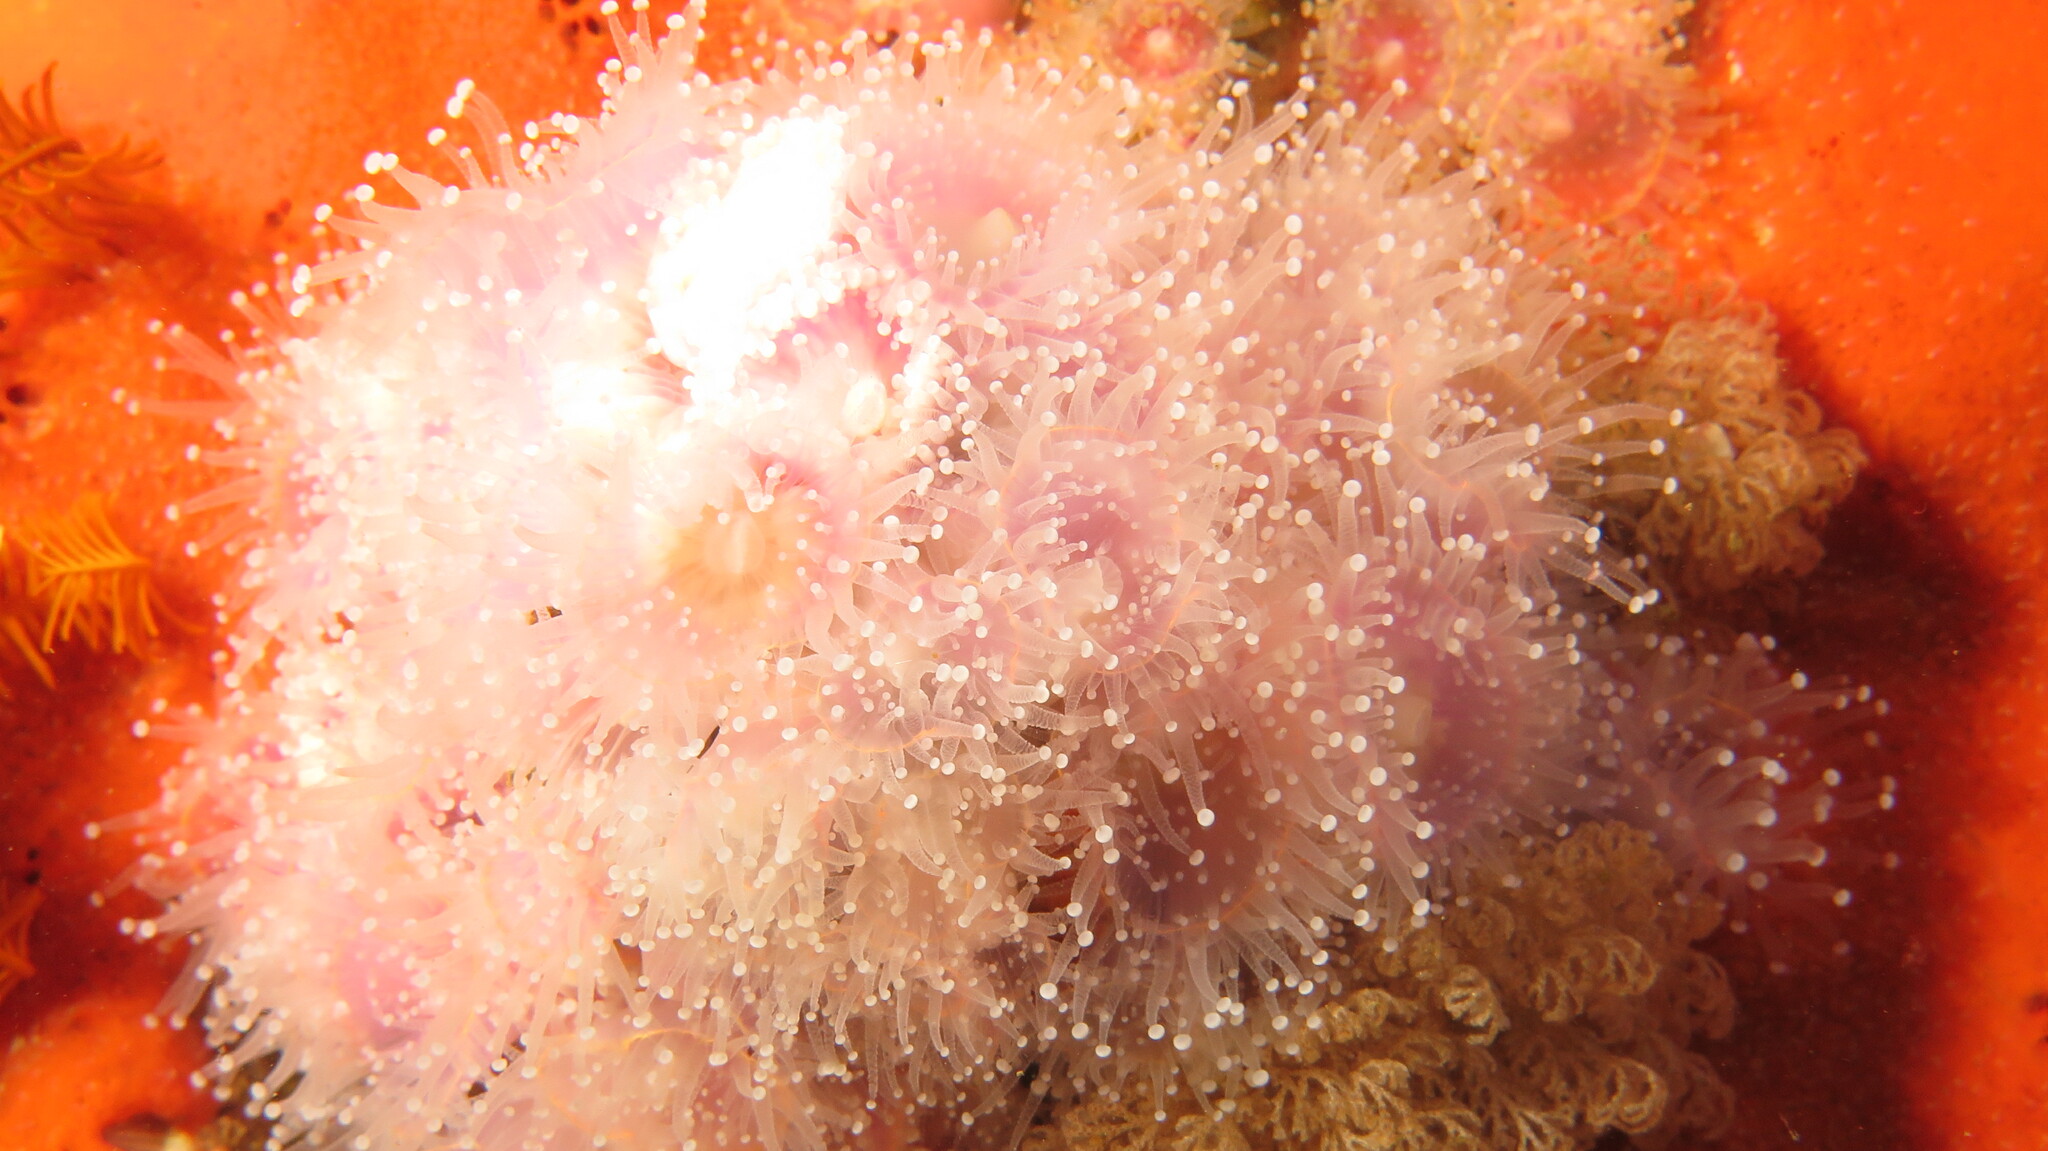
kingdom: Animalia
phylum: Cnidaria
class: Anthozoa
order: Corallimorpharia
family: Corallimorphidae
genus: Corynactis
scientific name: Corynactis annulata
